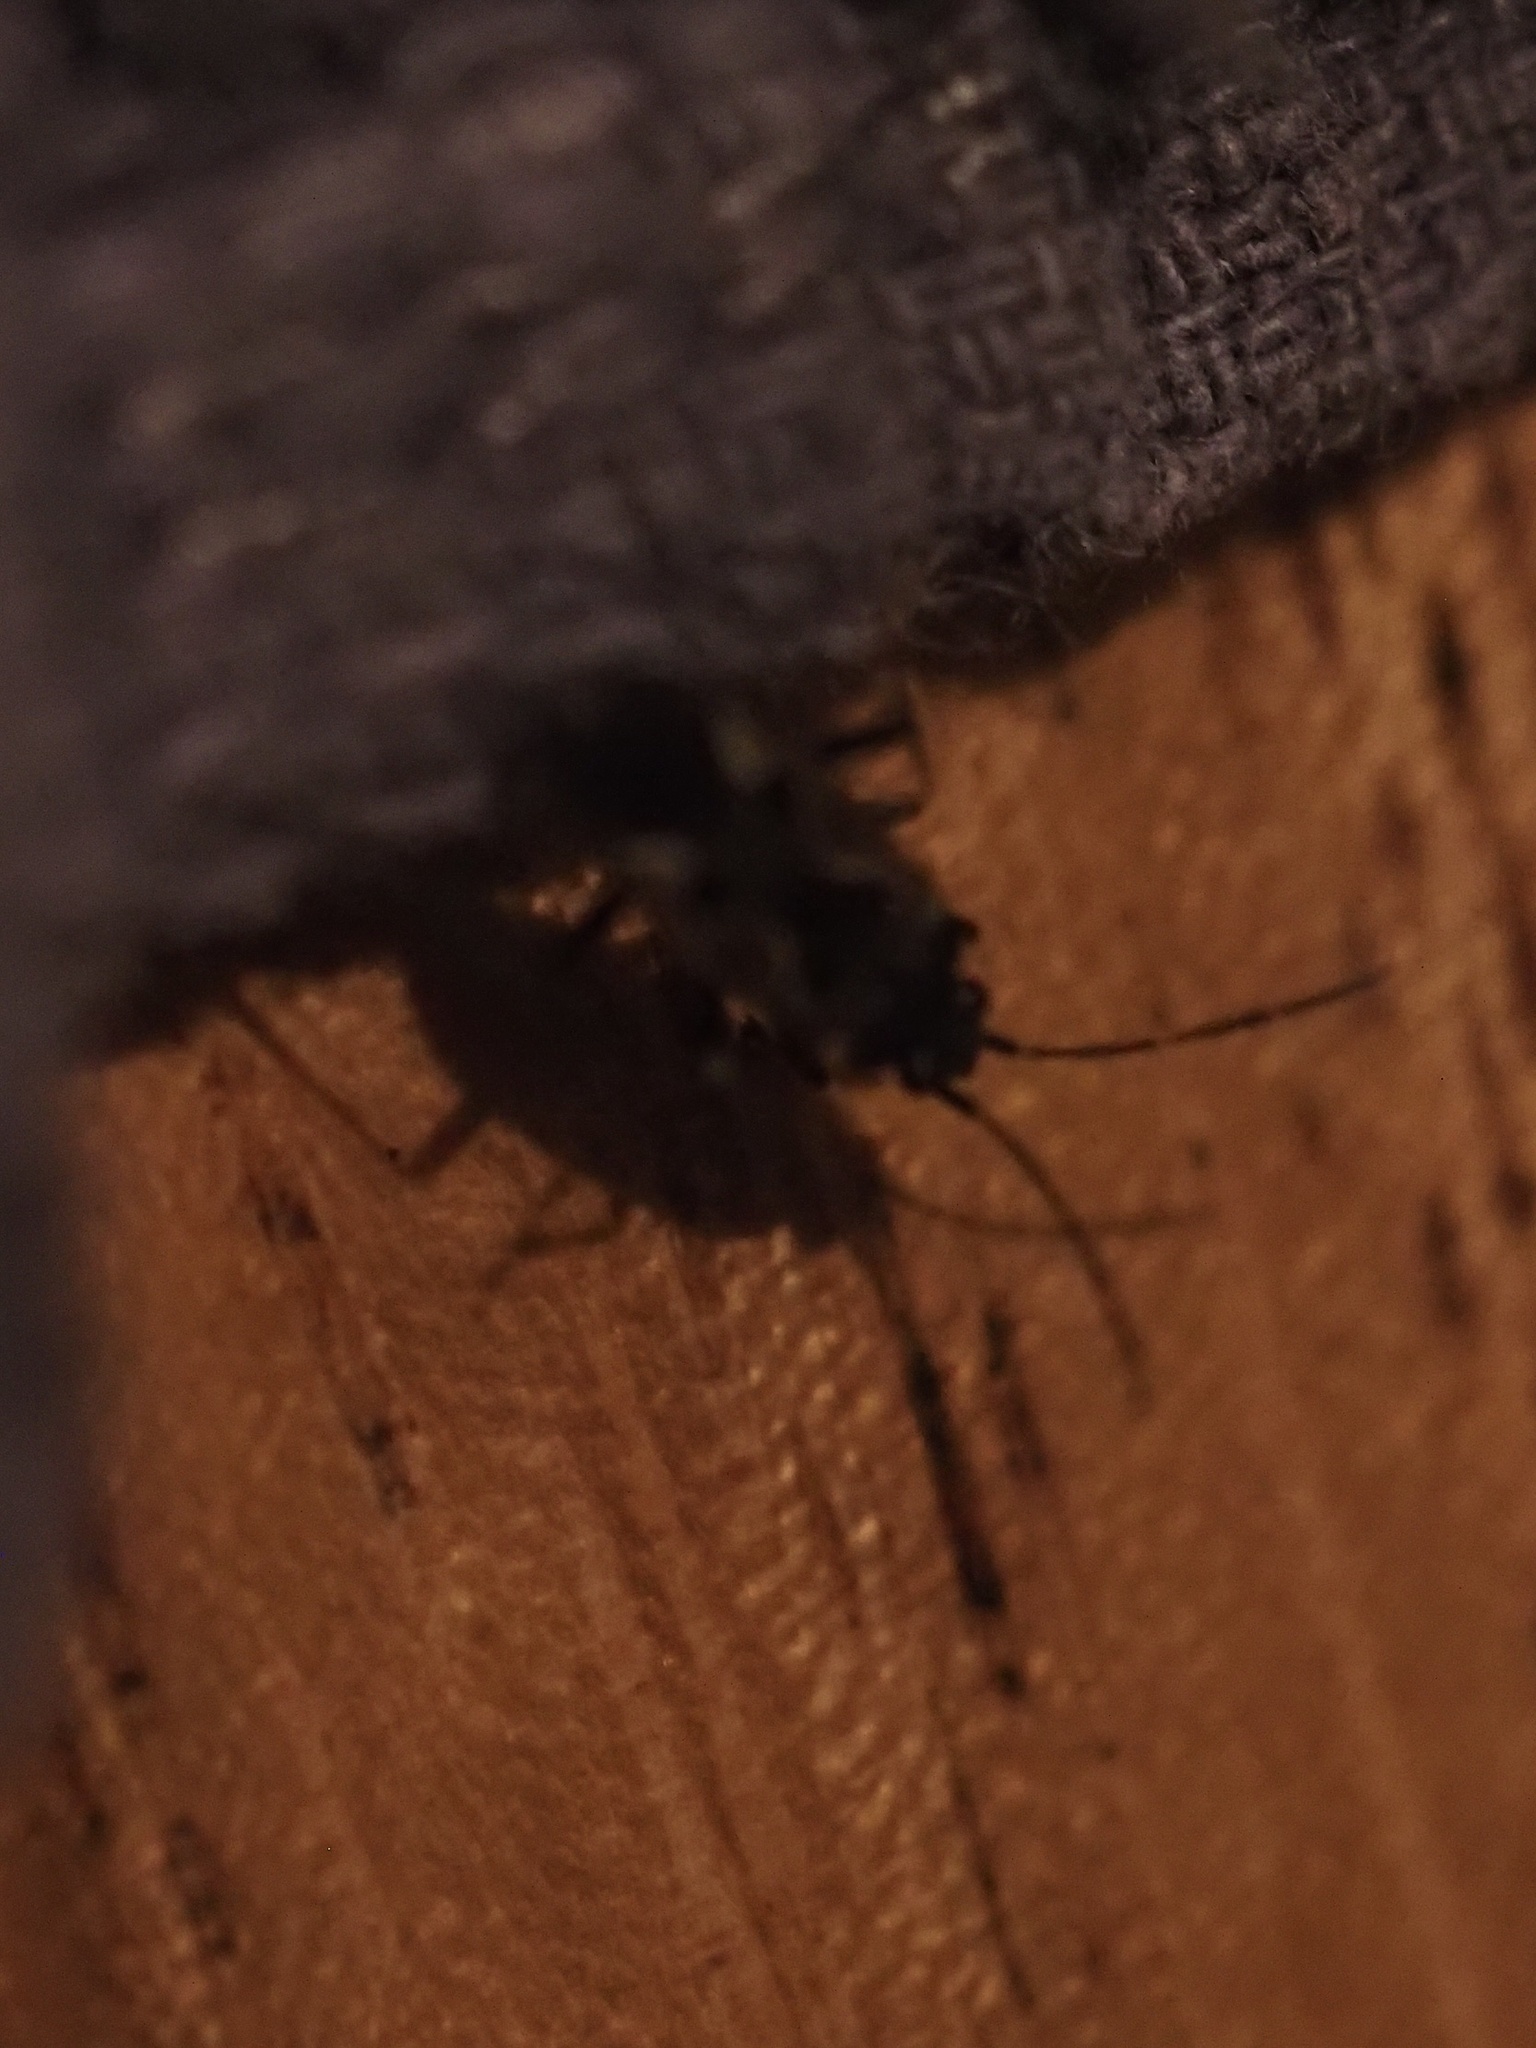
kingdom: Animalia
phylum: Arthropoda
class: Insecta
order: Hemiptera
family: Rhyparochromidae
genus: Rhyparochromus
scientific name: Rhyparochromus vulgaris
